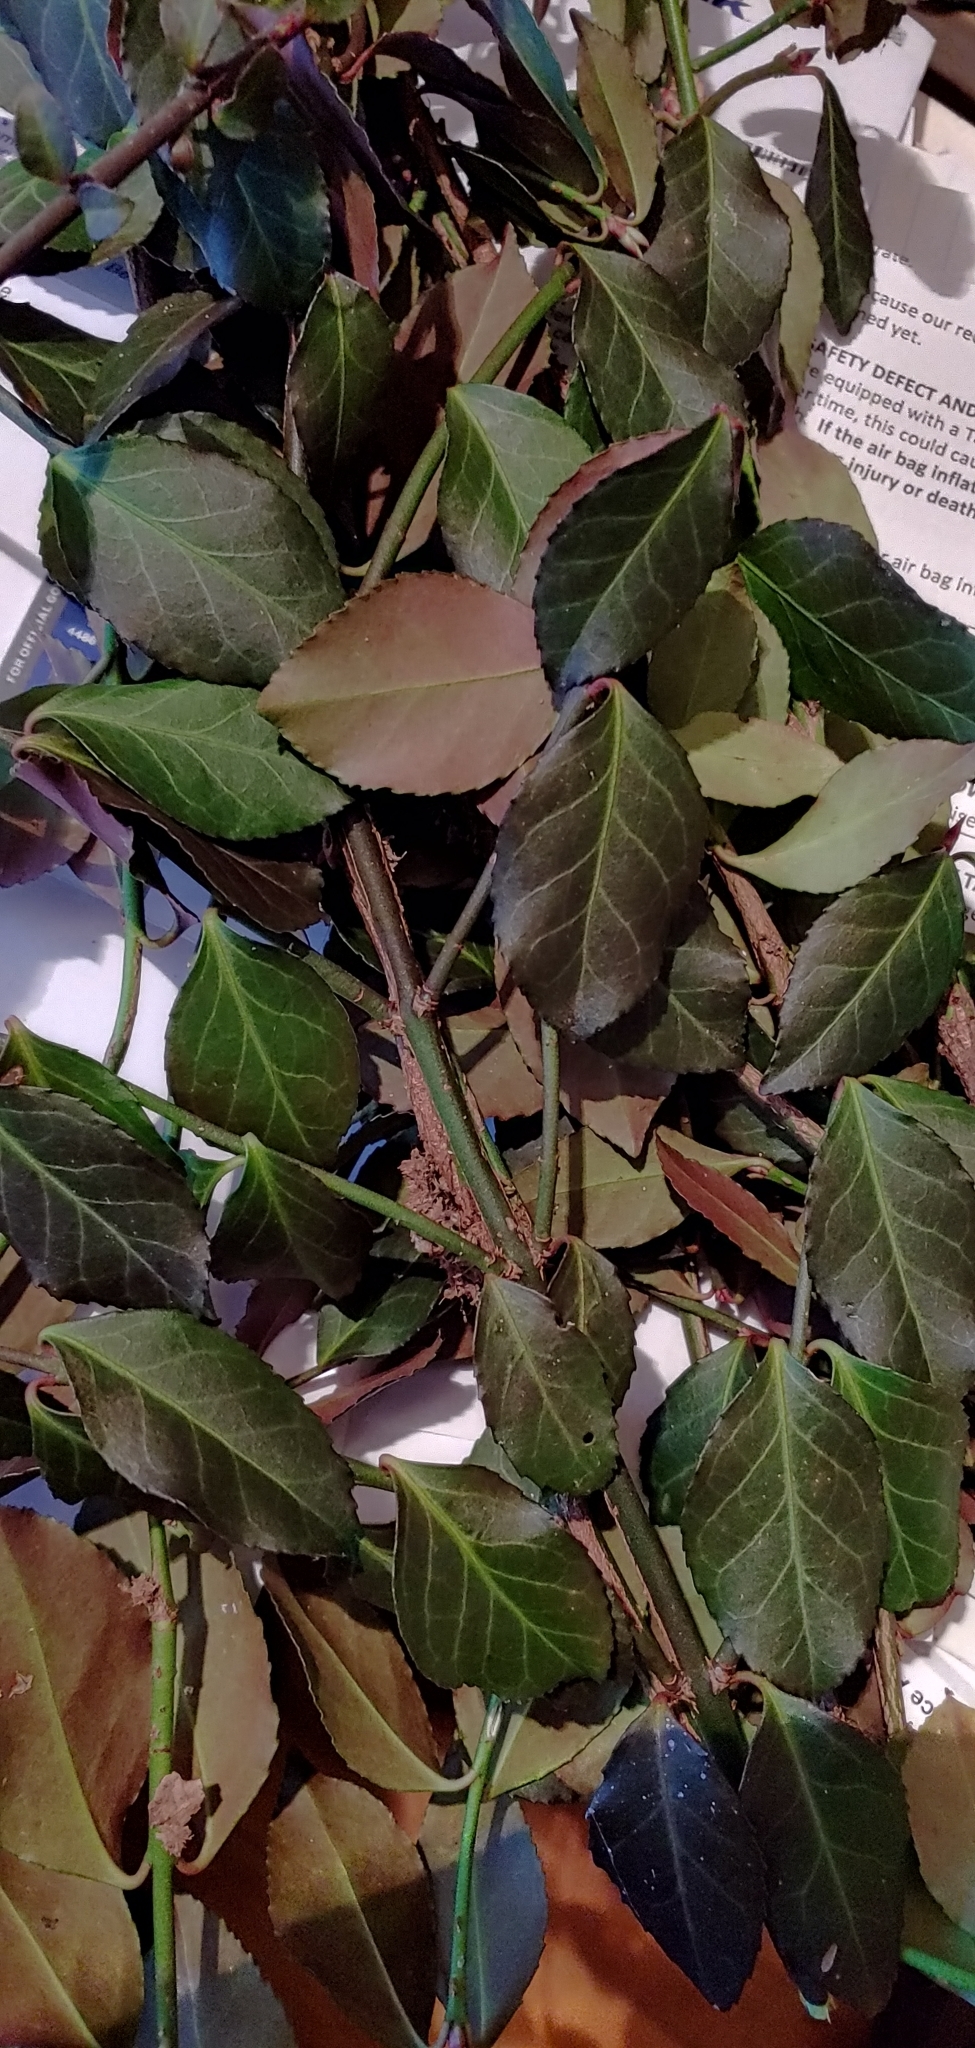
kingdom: Plantae
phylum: Tracheophyta
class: Magnoliopsida
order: Celastrales
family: Celastraceae
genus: Euonymus
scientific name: Euonymus fortunei
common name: Climbing euonymus
